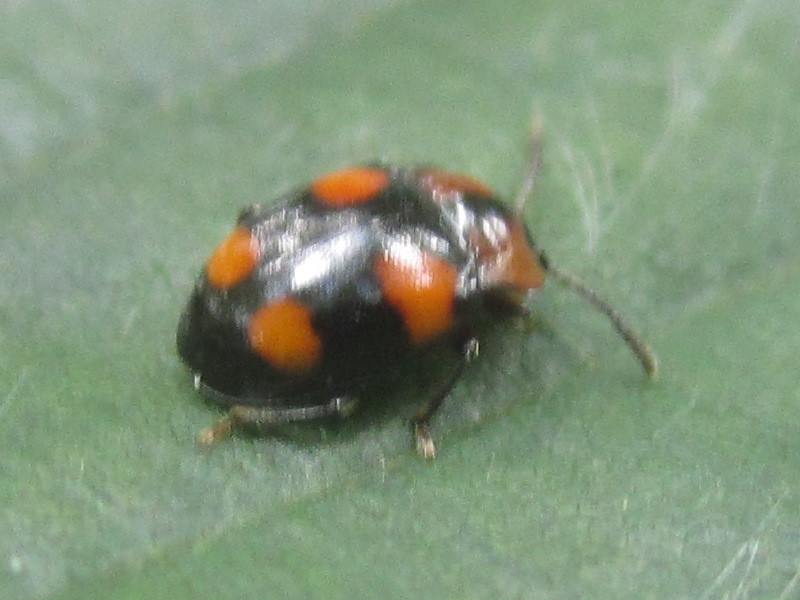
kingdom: Animalia
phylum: Arthropoda
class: Insecta
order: Coleoptera
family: Endomychidae
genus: Mycetina
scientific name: Mycetina perpulchra
